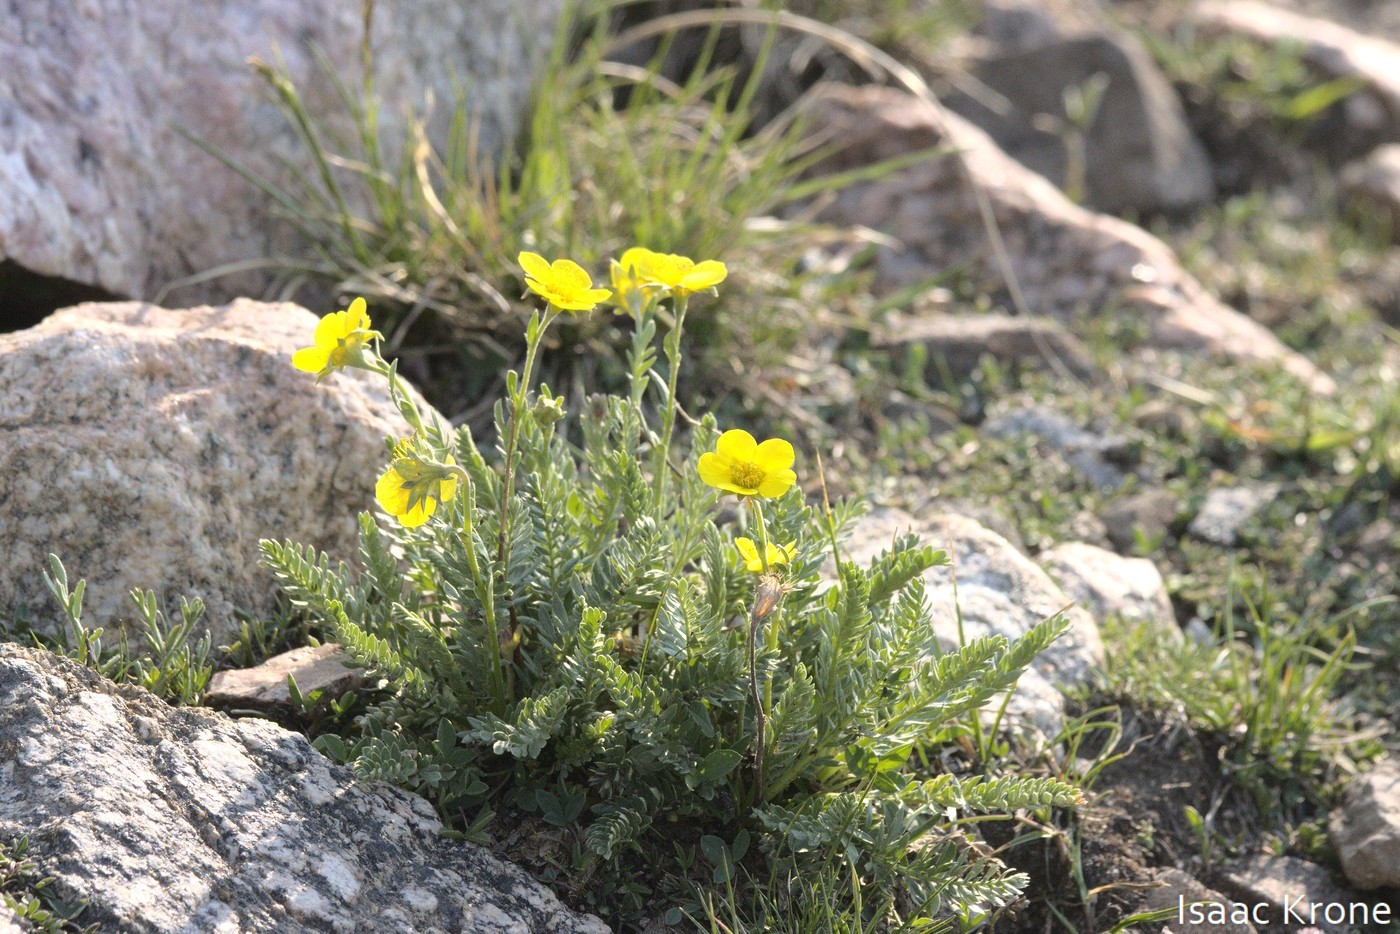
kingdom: Plantae
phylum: Tracheophyta
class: Magnoliopsida
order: Rosales
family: Rosaceae
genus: Geum
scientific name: Geum rossii
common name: Alpine avens
